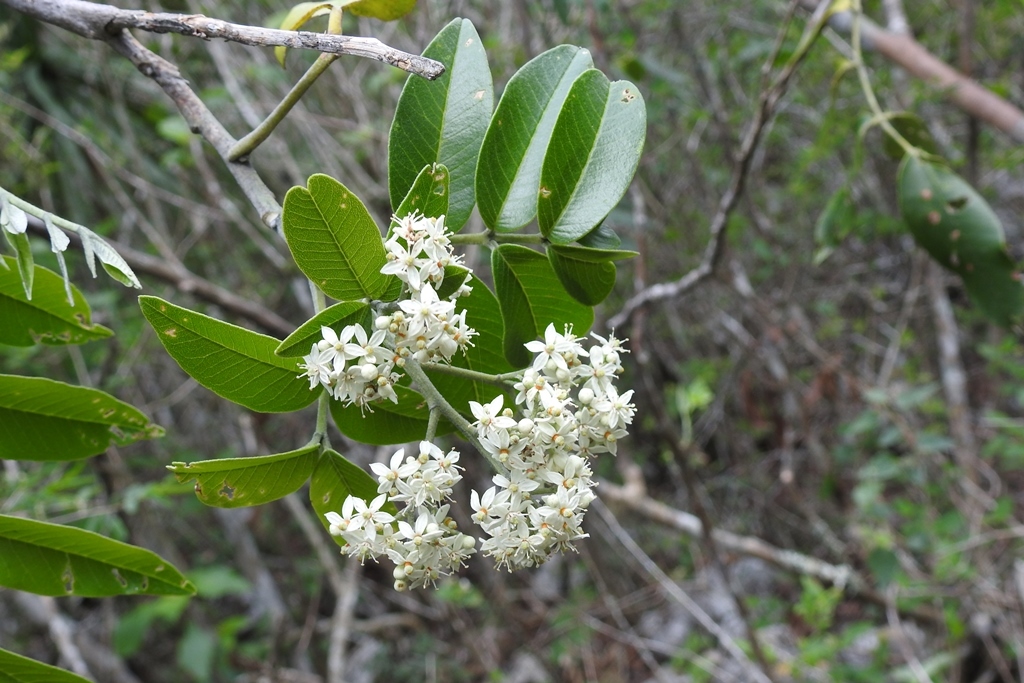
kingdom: Plantae
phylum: Tracheophyta
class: Magnoliopsida
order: Sapindales
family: Anacardiaceae
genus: Rhus
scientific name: Rhus vestita
